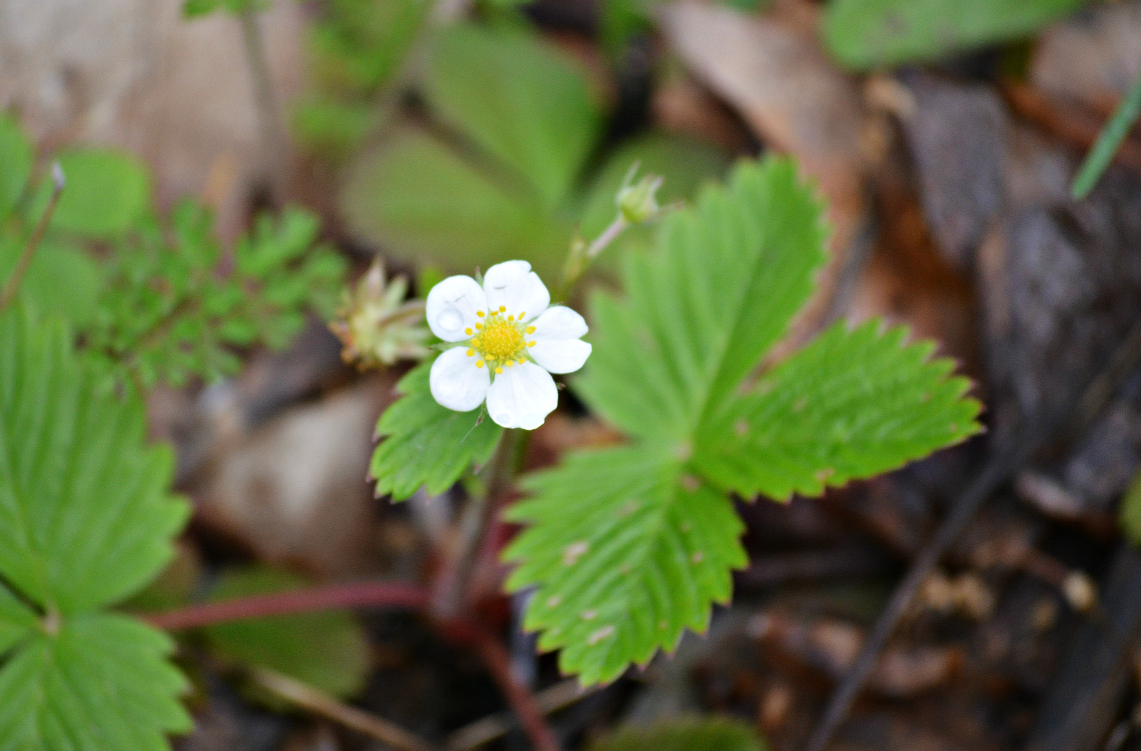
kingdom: Plantae
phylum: Tracheophyta
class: Magnoliopsida
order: Rosales
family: Rosaceae
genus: Fragaria
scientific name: Fragaria vesca
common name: Wild strawberry
